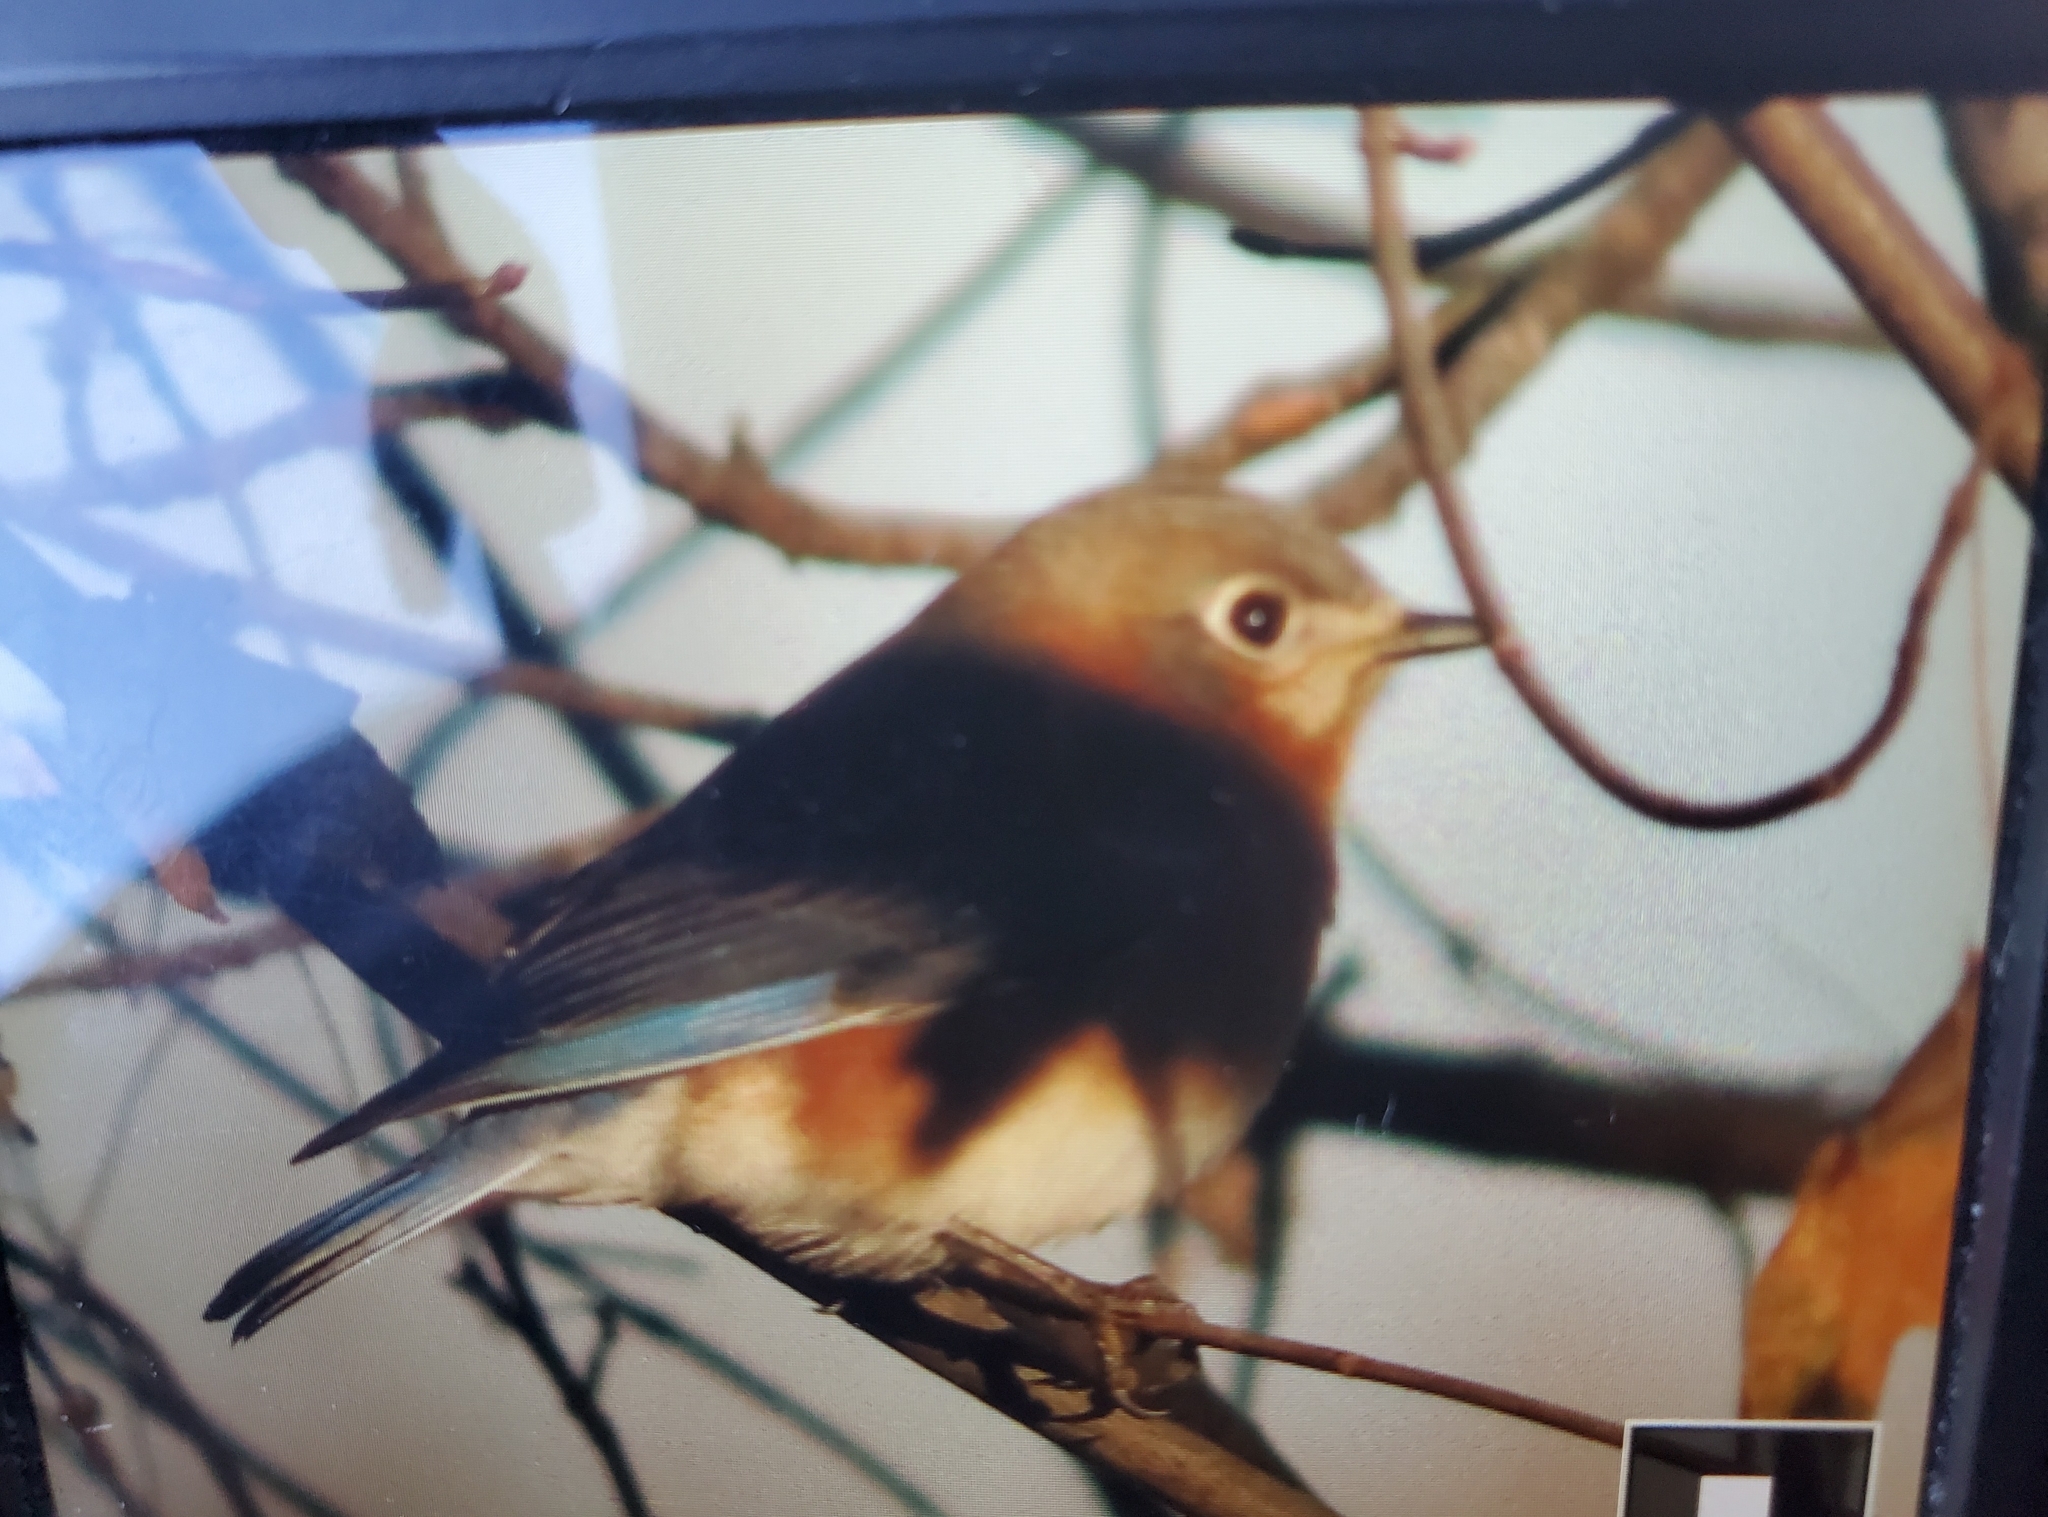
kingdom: Animalia
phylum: Chordata
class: Aves
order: Passeriformes
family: Turdidae
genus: Sialia
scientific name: Sialia sialis
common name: Eastern bluebird
